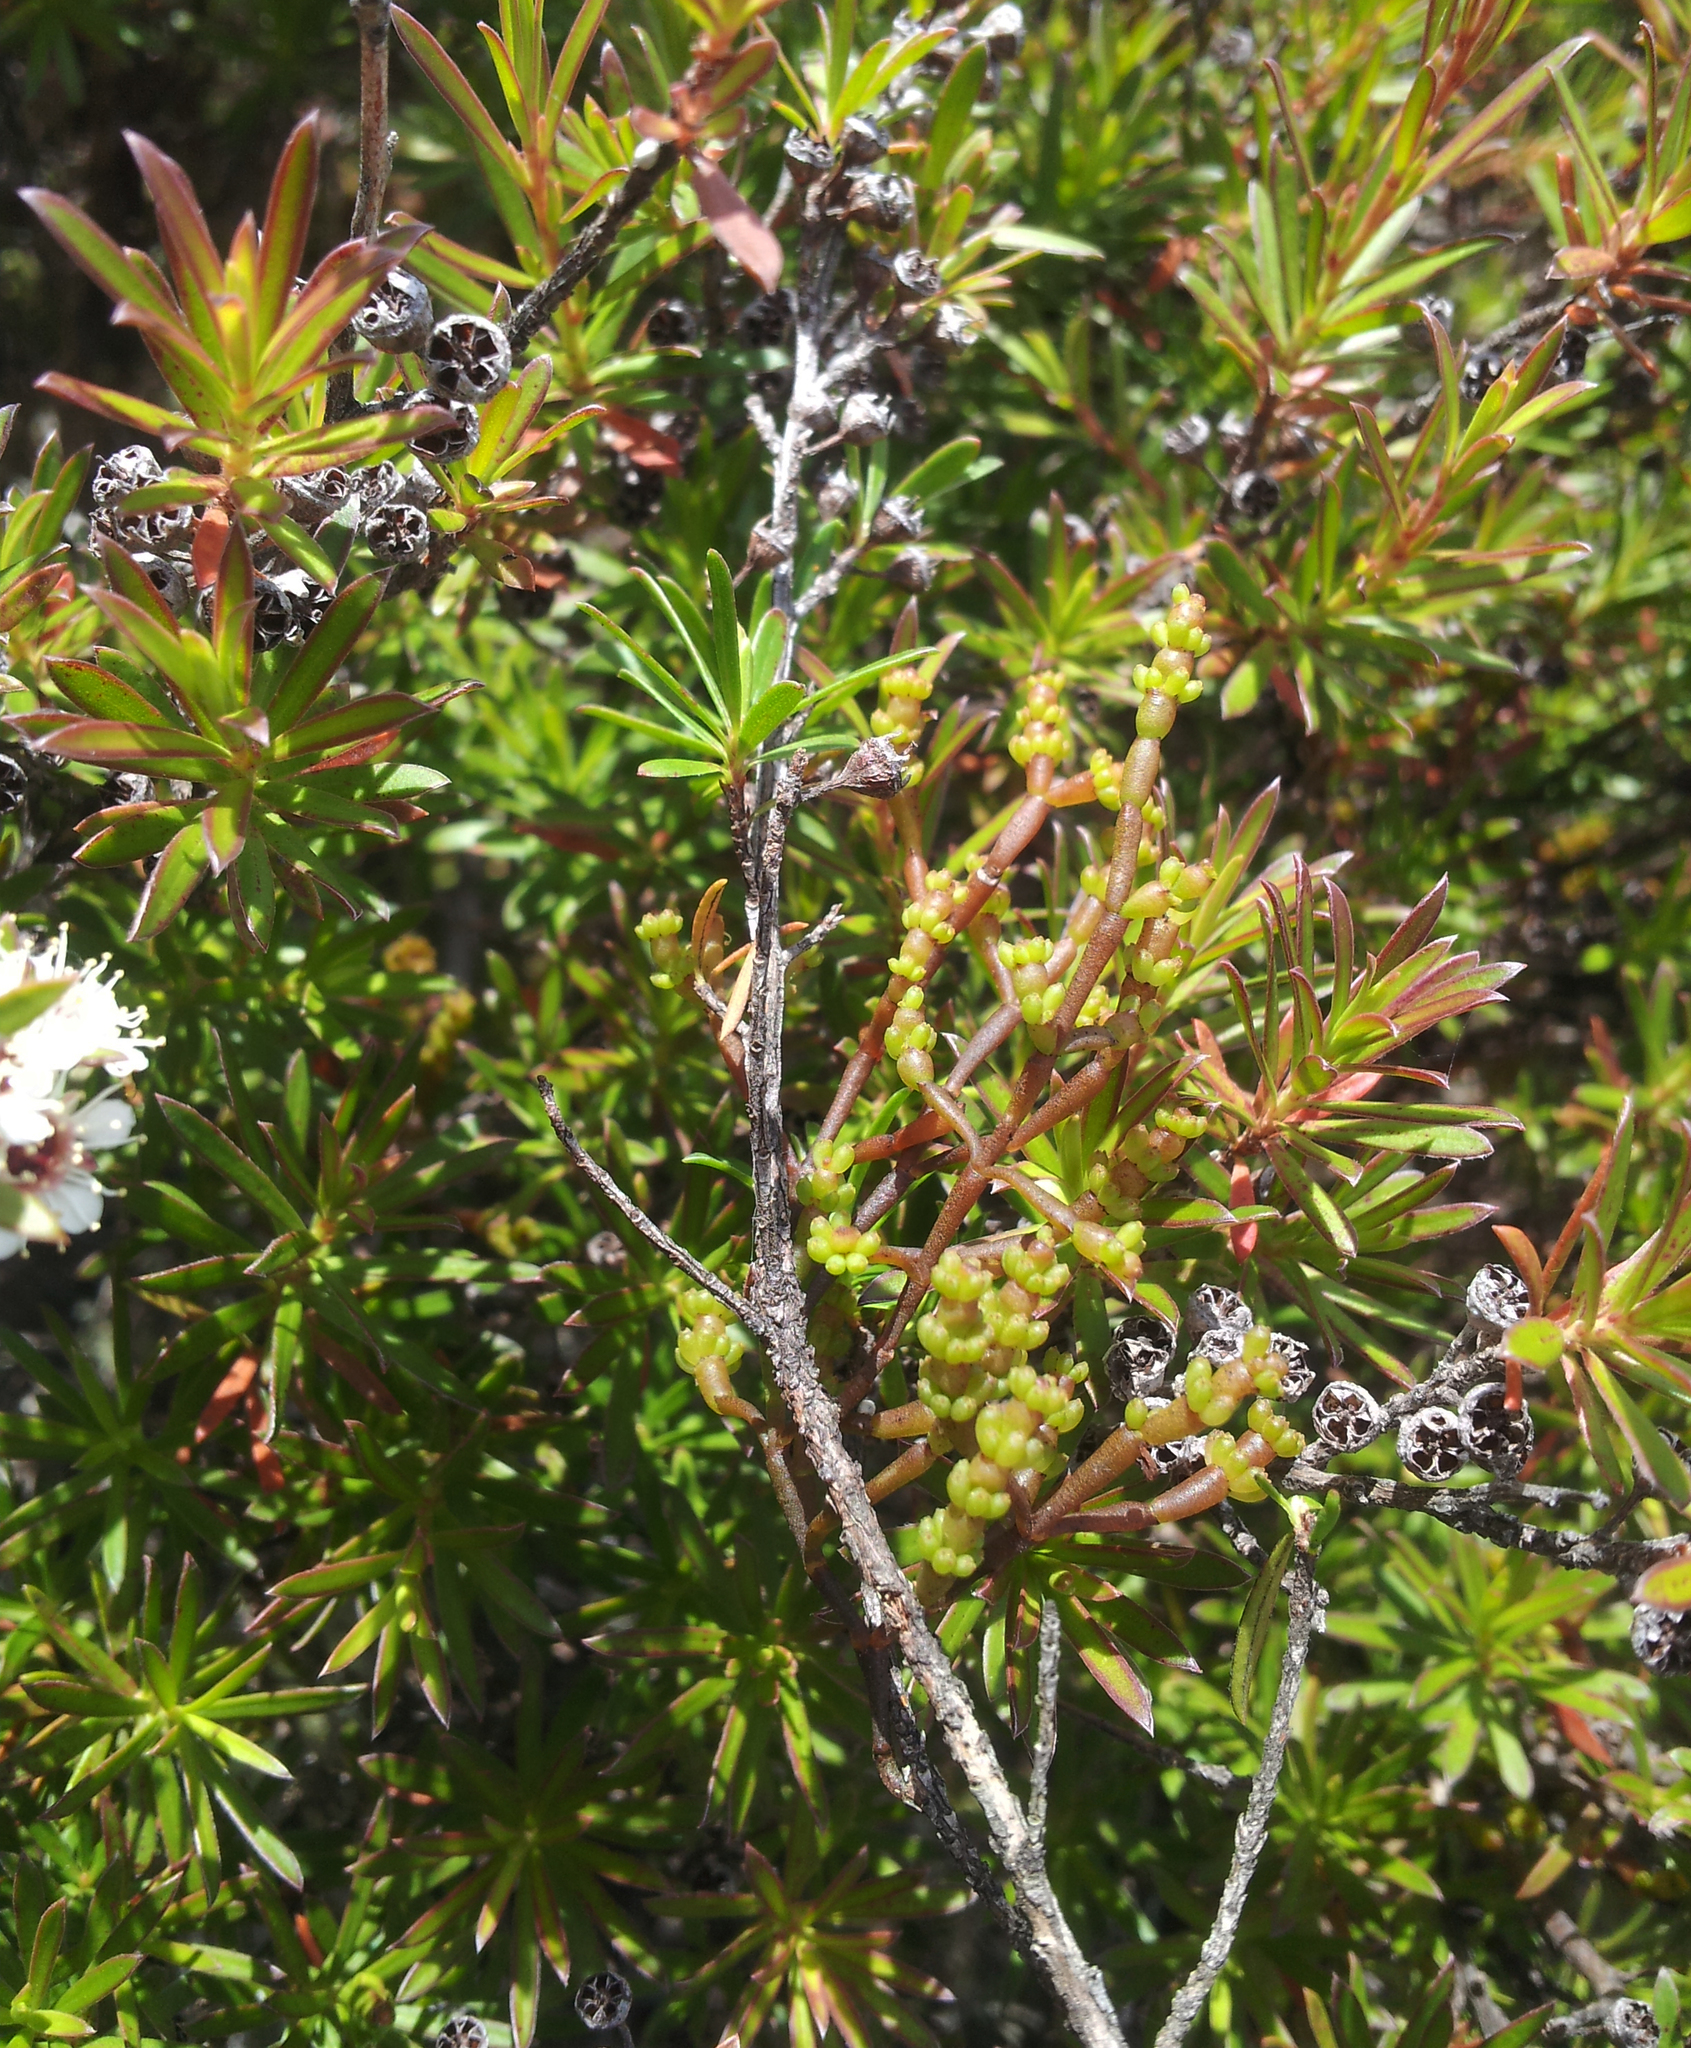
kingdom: Plantae
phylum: Tracheophyta
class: Magnoliopsida
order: Santalales
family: Viscaceae
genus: Korthalsella
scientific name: Korthalsella salicornioides
